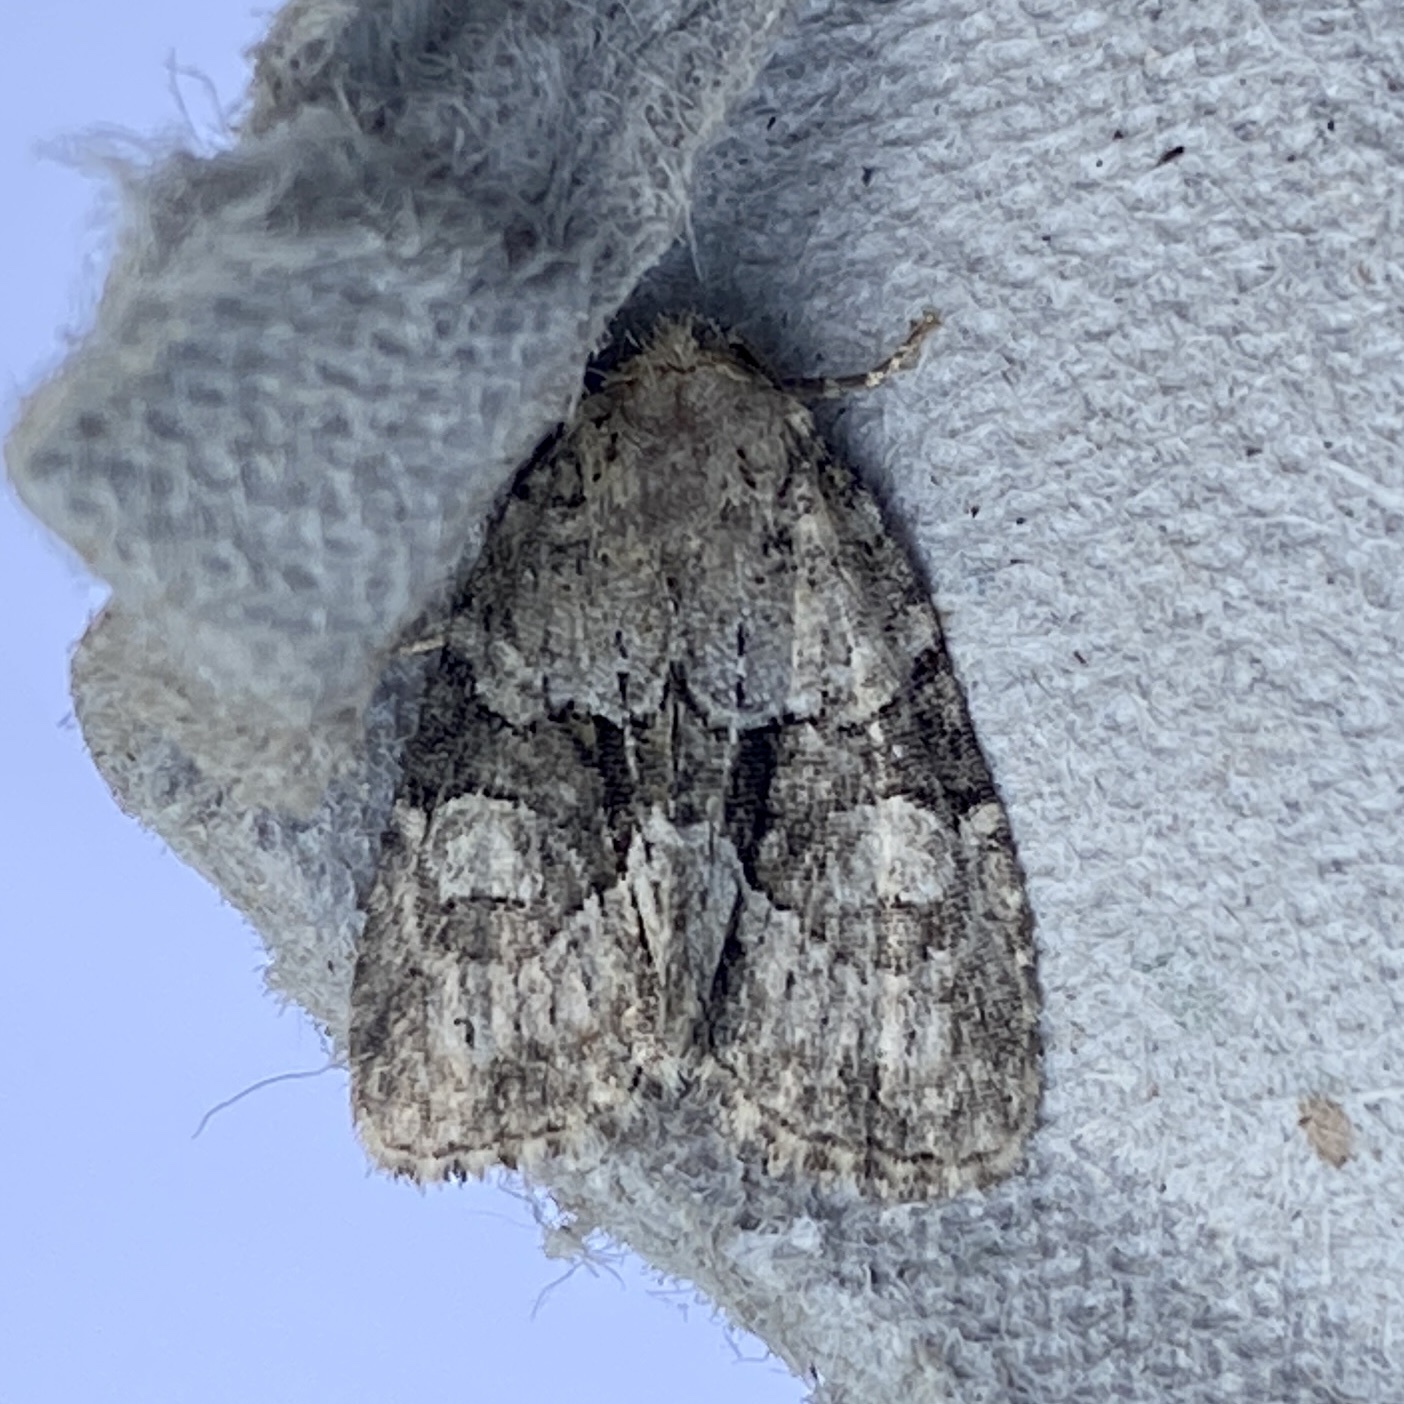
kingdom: Animalia
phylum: Arthropoda
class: Insecta
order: Lepidoptera
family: Noctuidae
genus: Neoligia
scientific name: Neoligia exhausta
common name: Exhausted brocade
